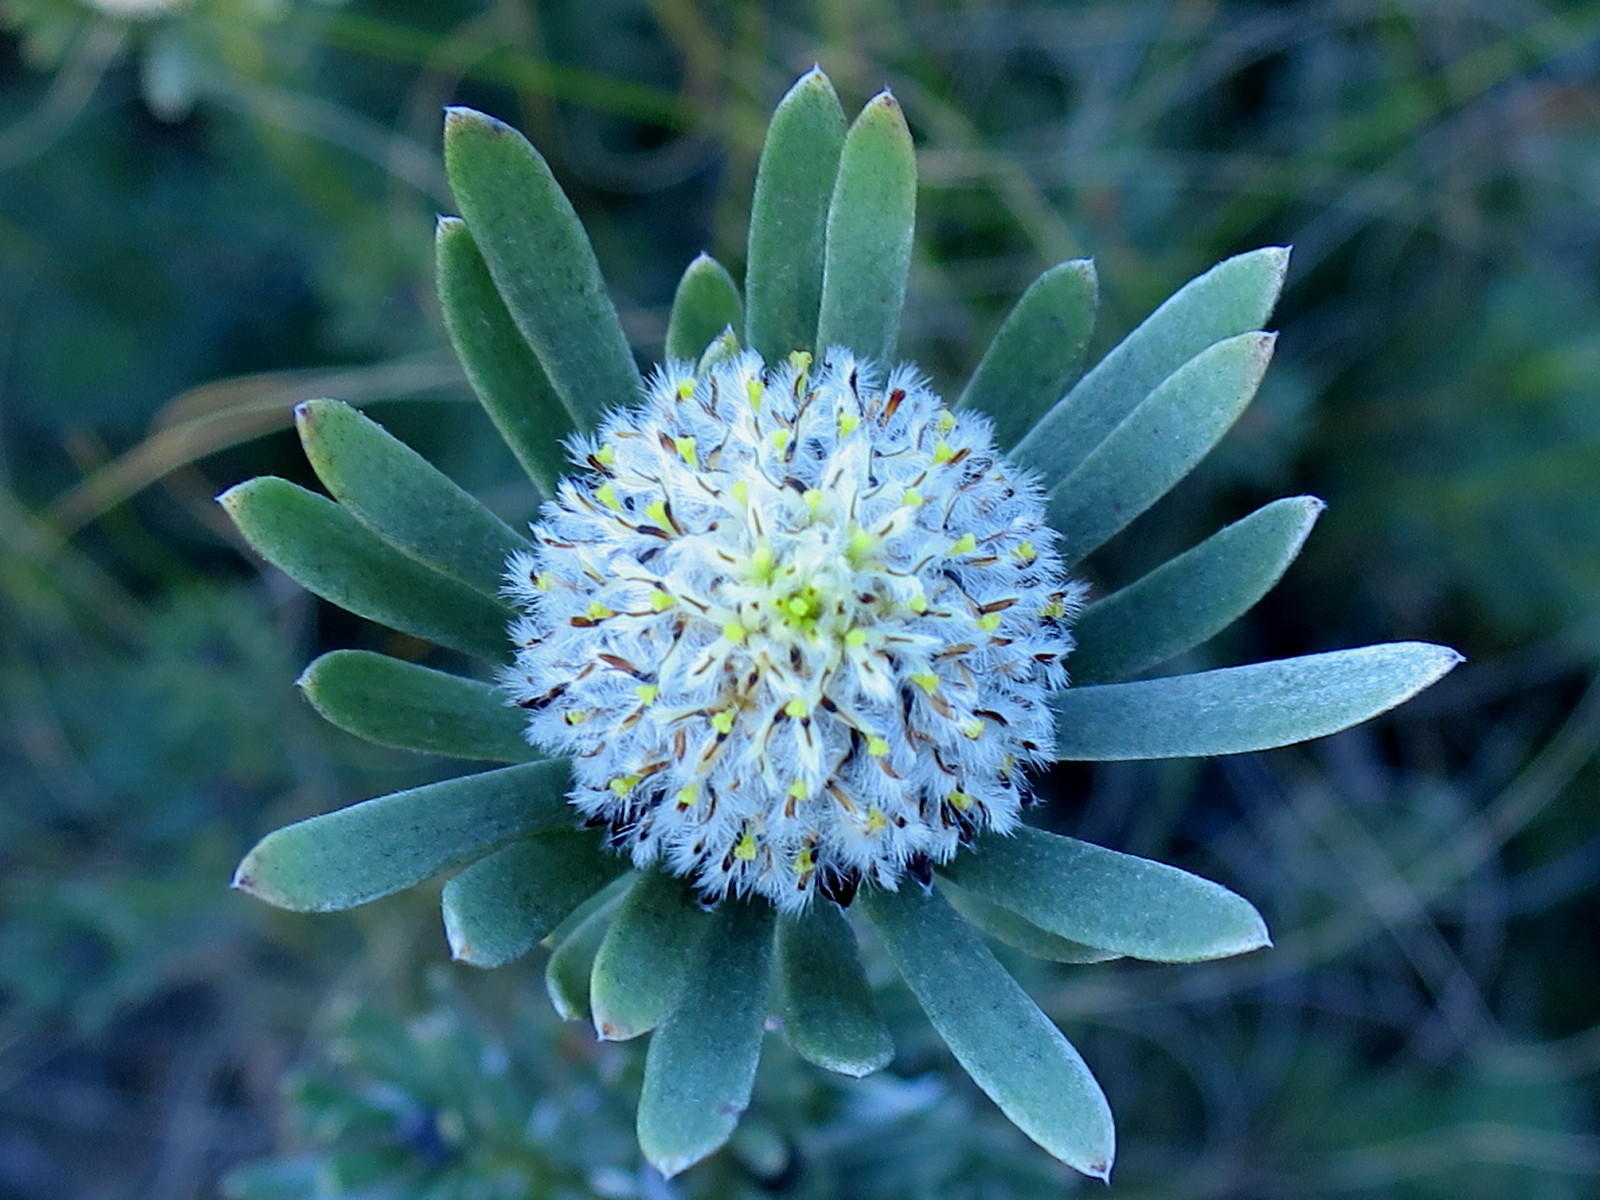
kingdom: Plantae
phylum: Tracheophyta
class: Magnoliopsida
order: Proteales
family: Proteaceae
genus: Leucadendron
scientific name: Leucadendron singulare
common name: Kammanassie conebush
